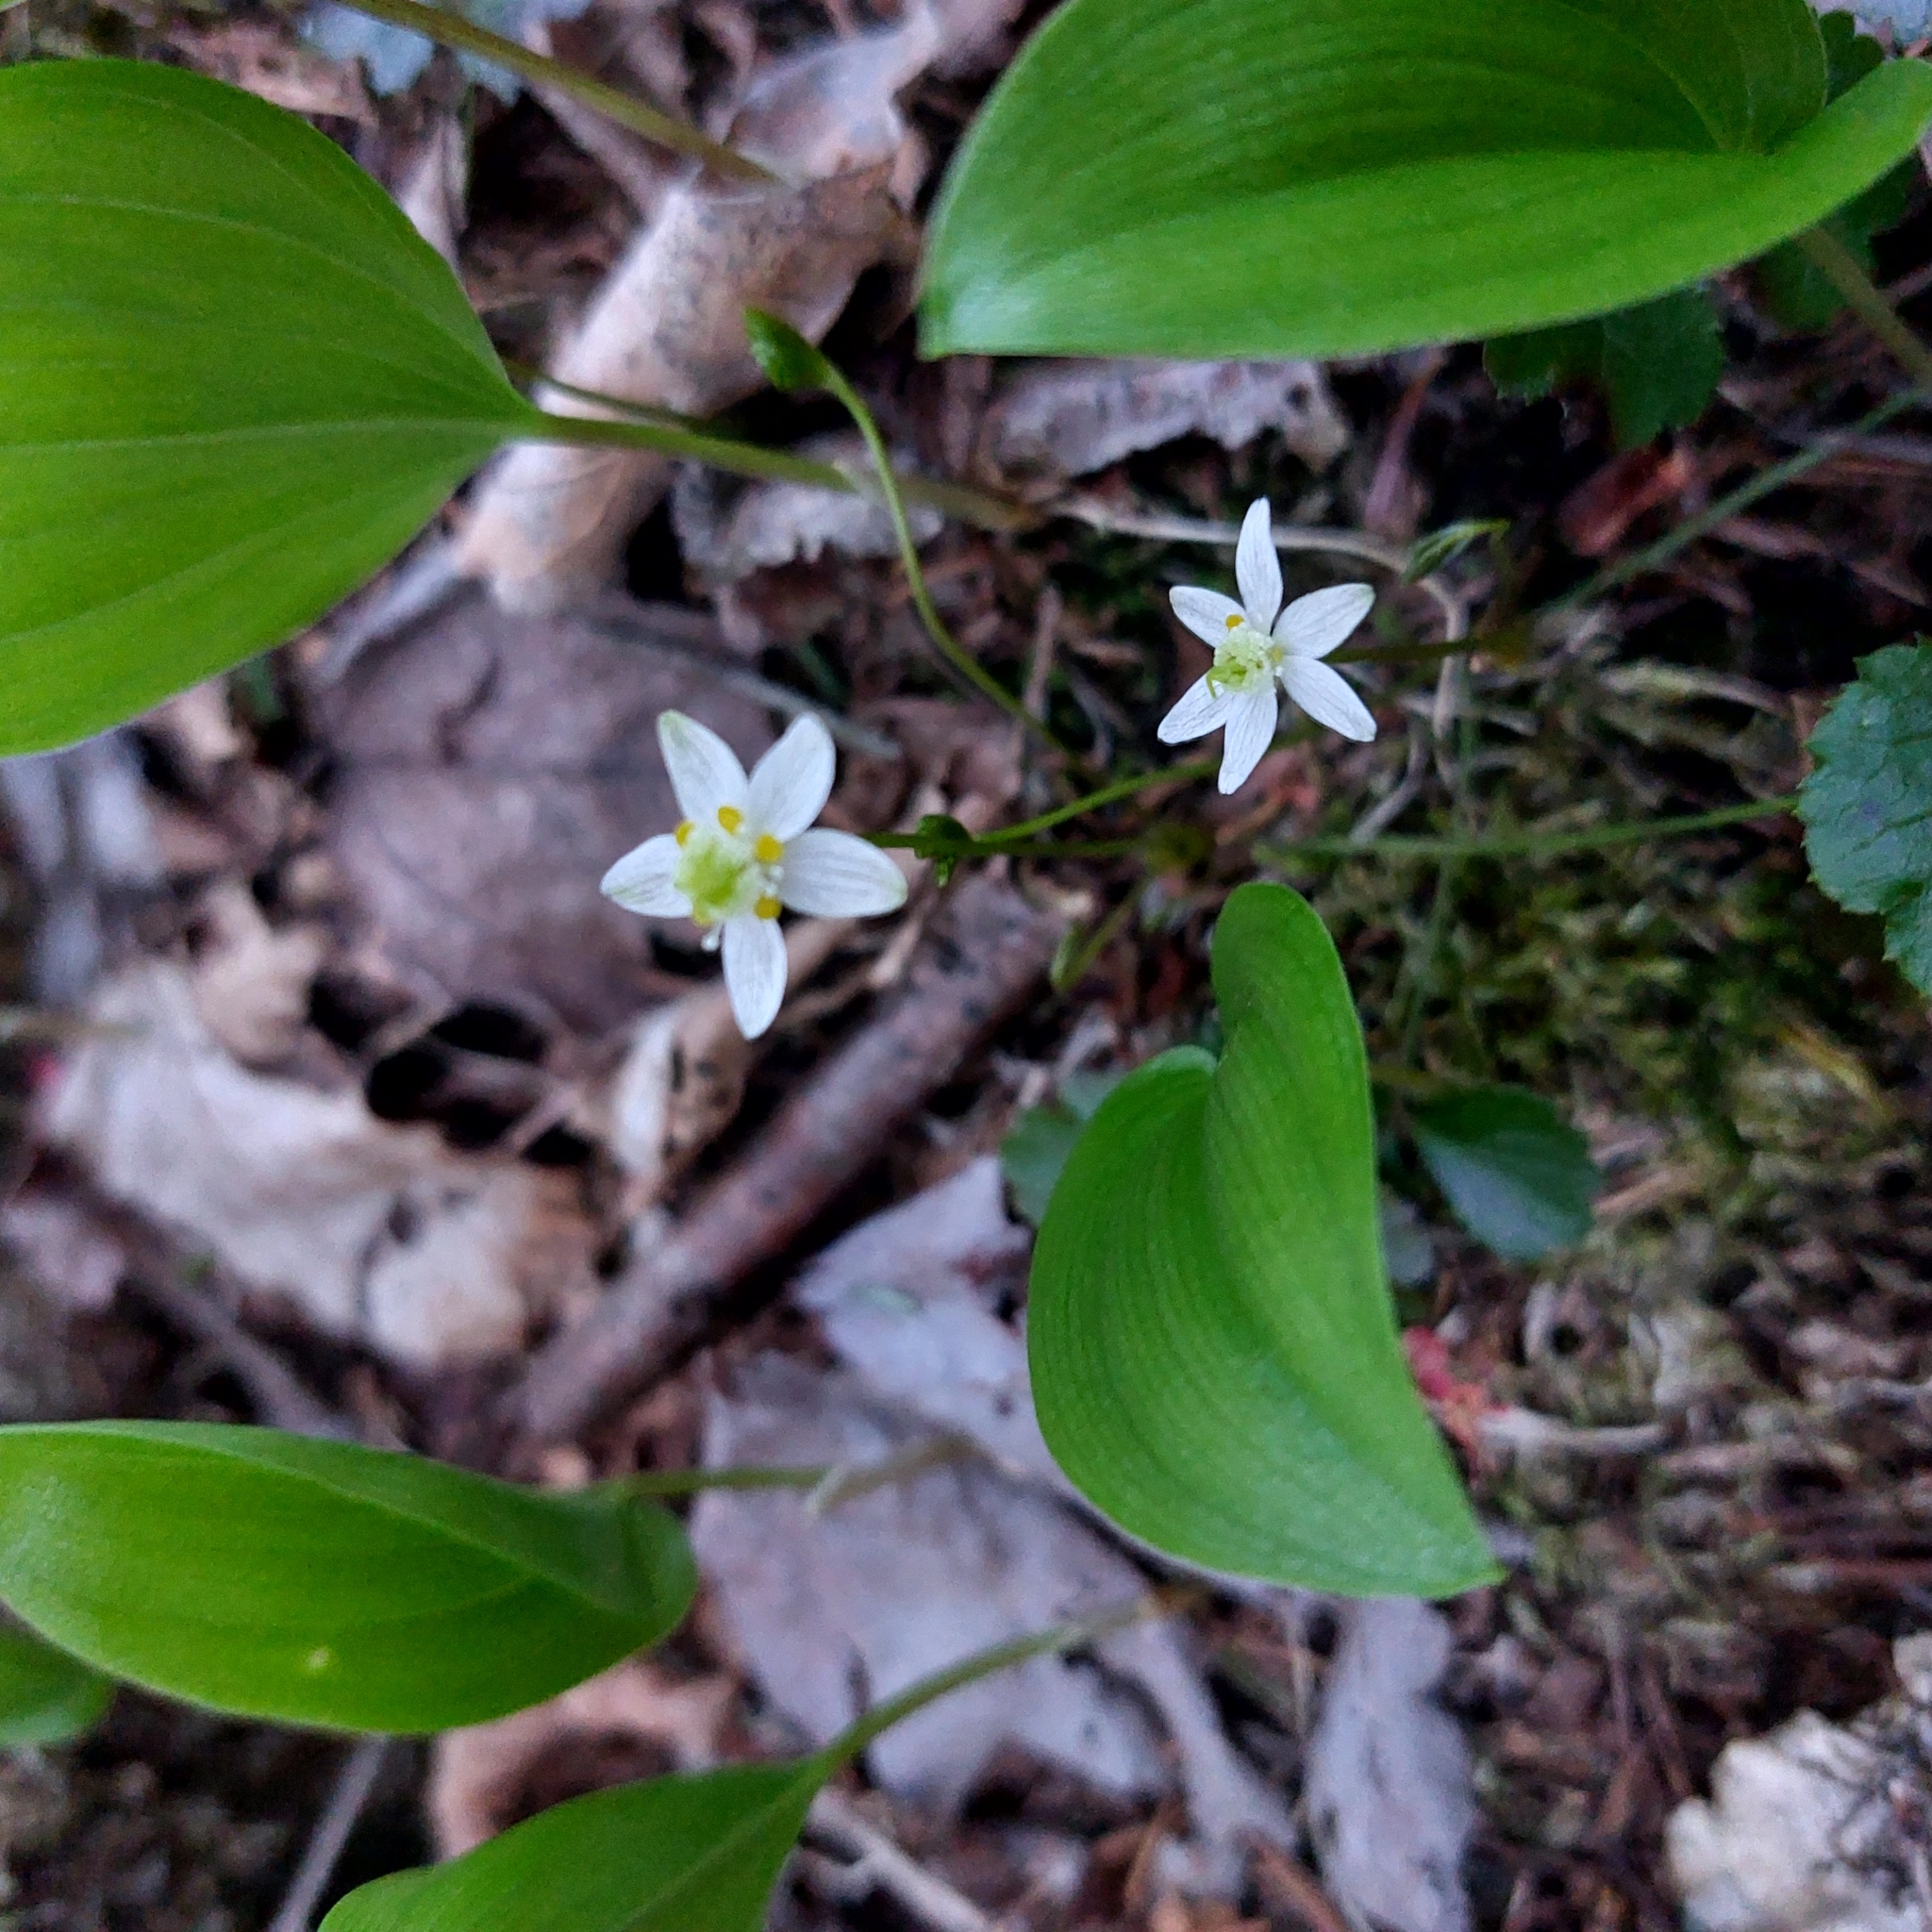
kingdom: Plantae
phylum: Tracheophyta
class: Magnoliopsida
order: Ranunculales
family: Ranunculaceae
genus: Coptis
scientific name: Coptis trifolia
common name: Canker-root
